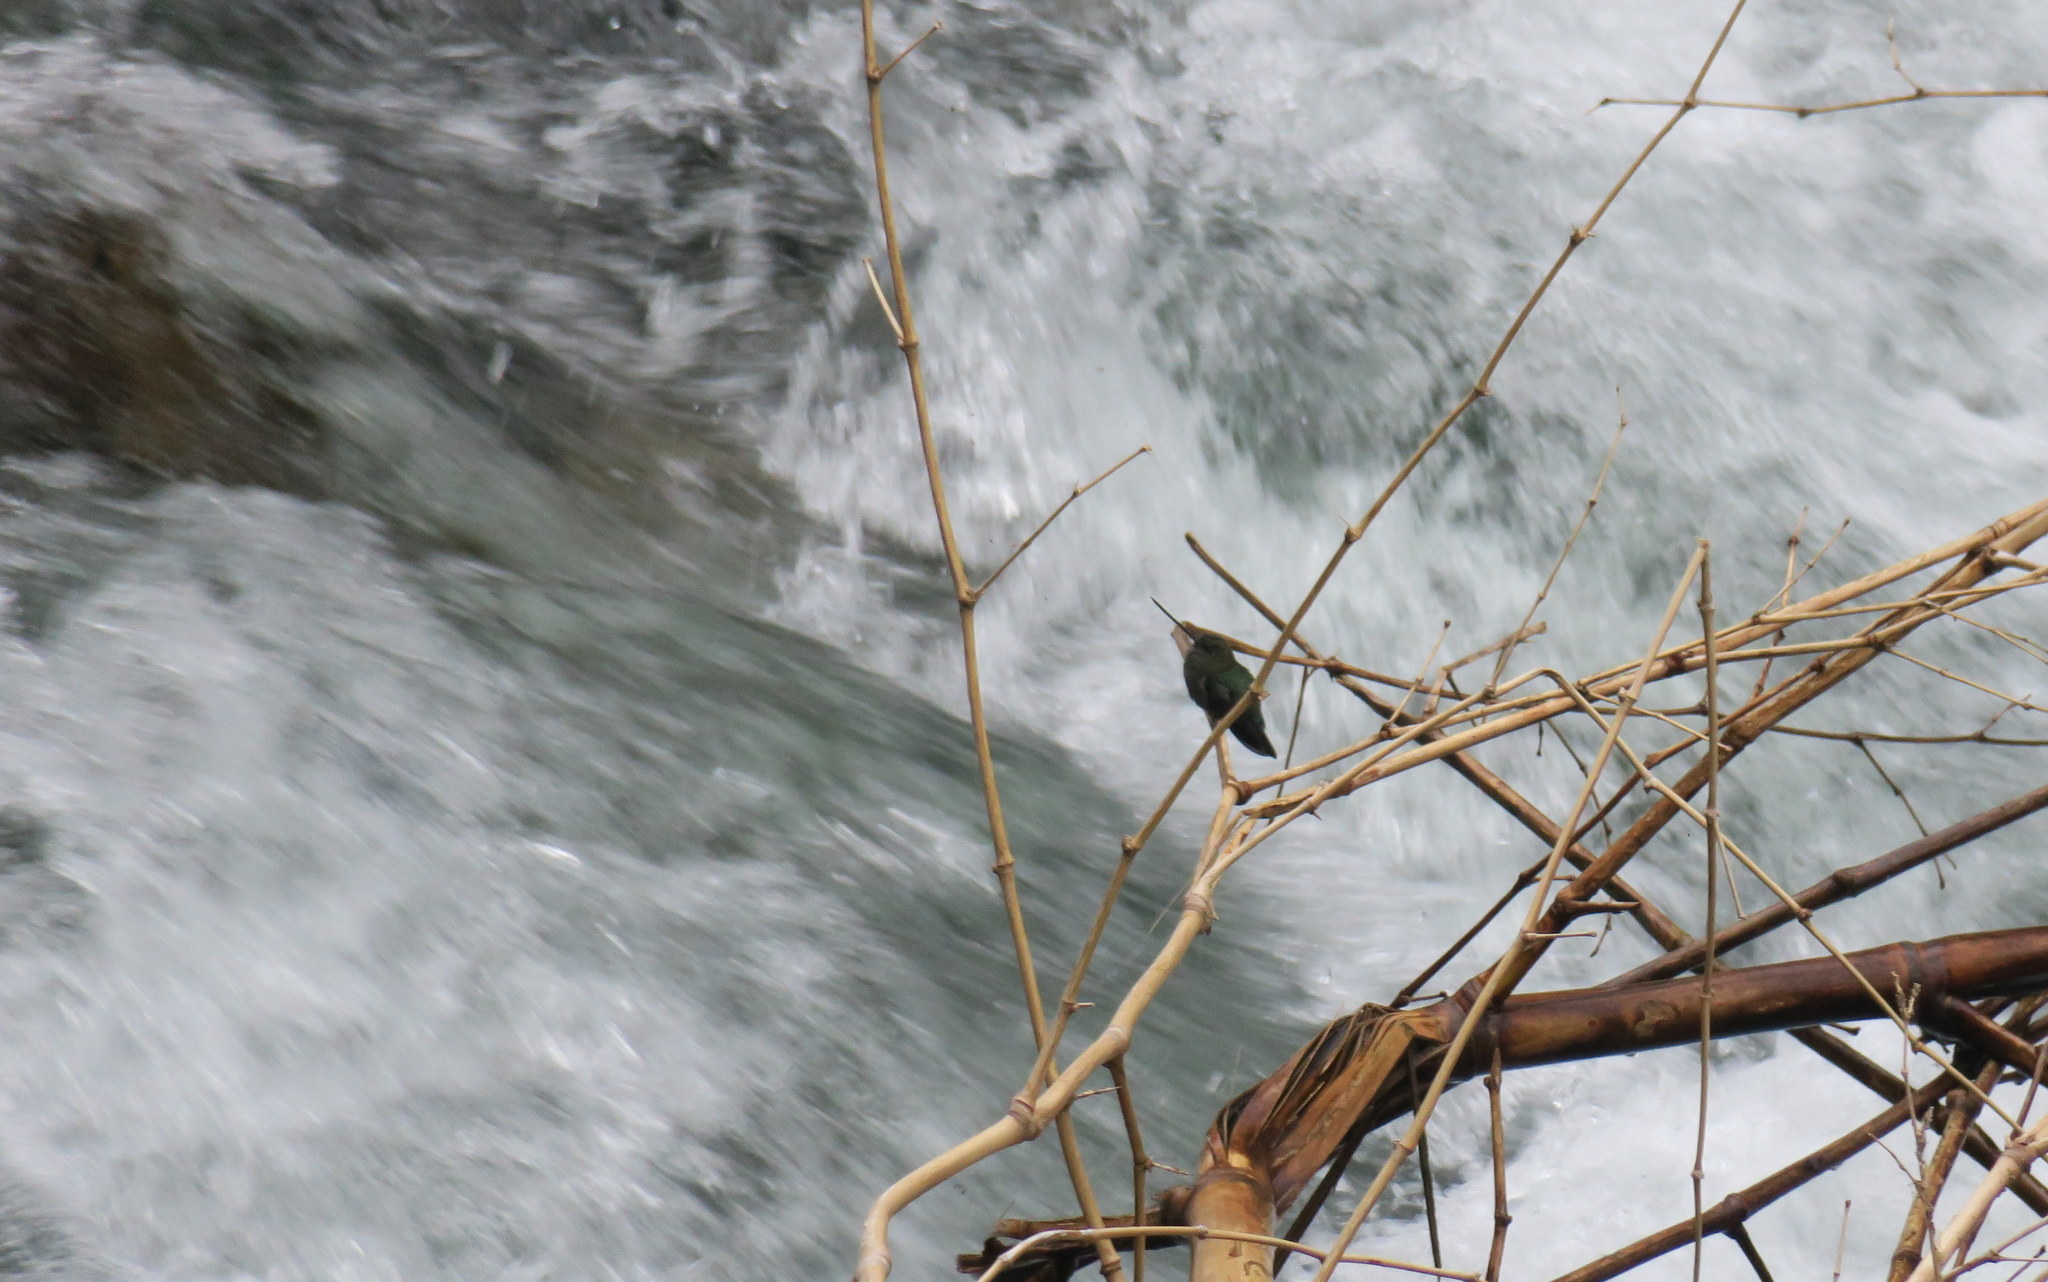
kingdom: Animalia
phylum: Chordata
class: Aves
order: Apodiformes
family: Trochilidae
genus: Doryfera
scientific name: Doryfera ludovicae
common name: Green-fronted lancebill
